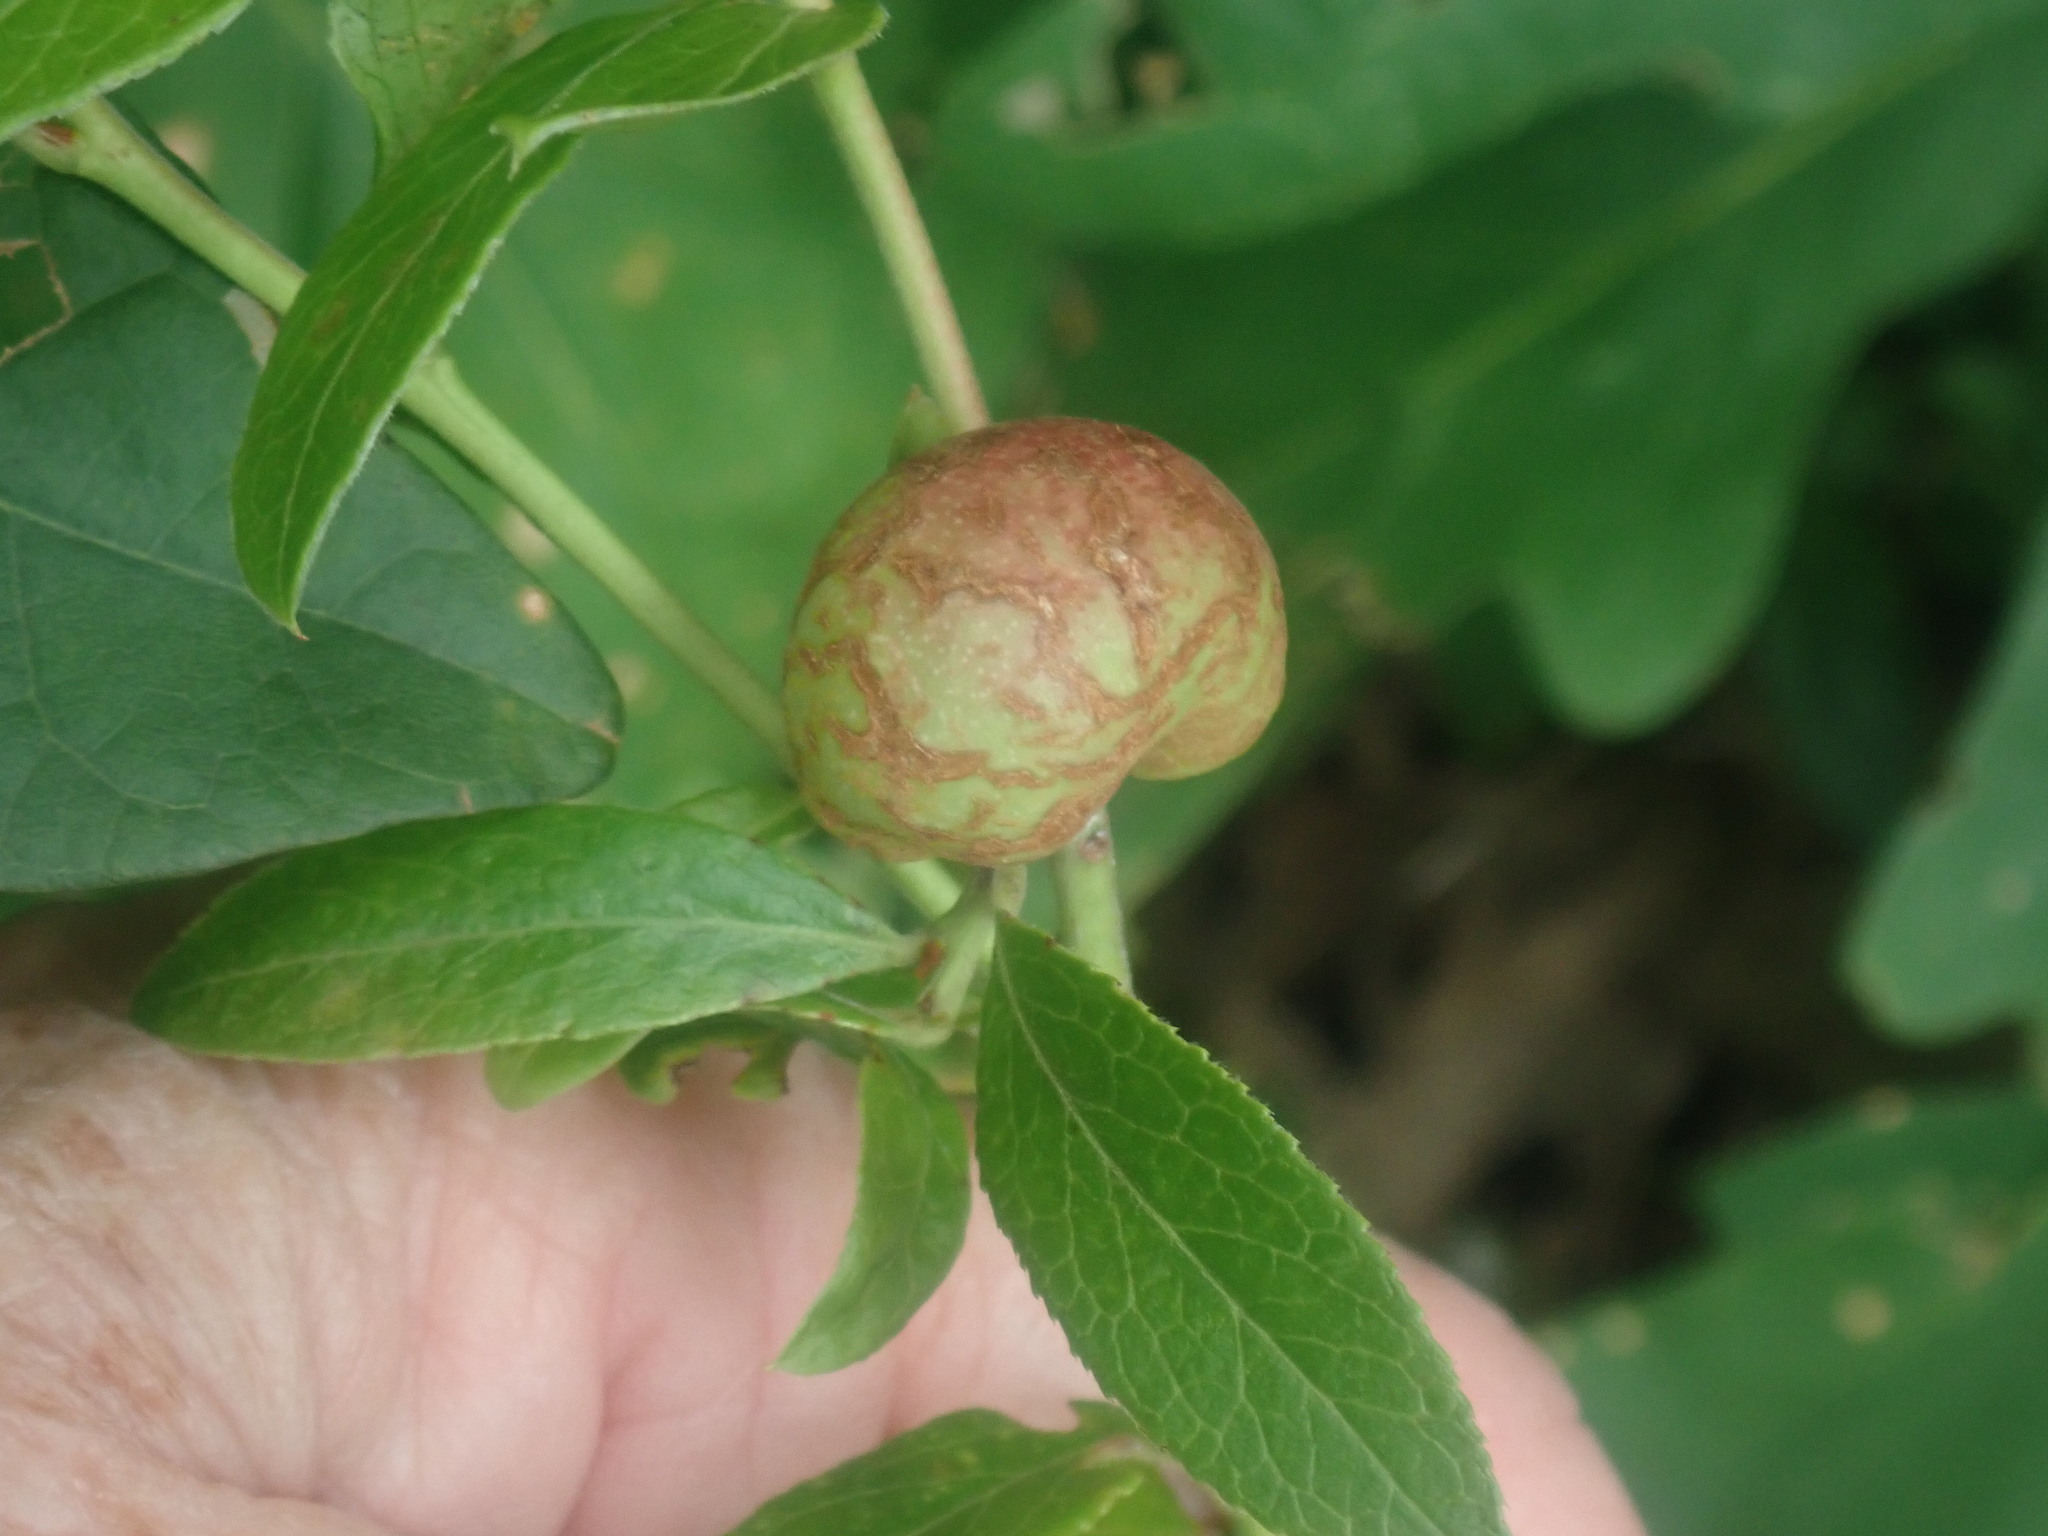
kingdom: Animalia
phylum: Arthropoda
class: Insecta
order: Hymenoptera
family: Pteromalidae
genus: Hemadas
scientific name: Hemadas nubilipennis
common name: Blueberry stem gall wasp
